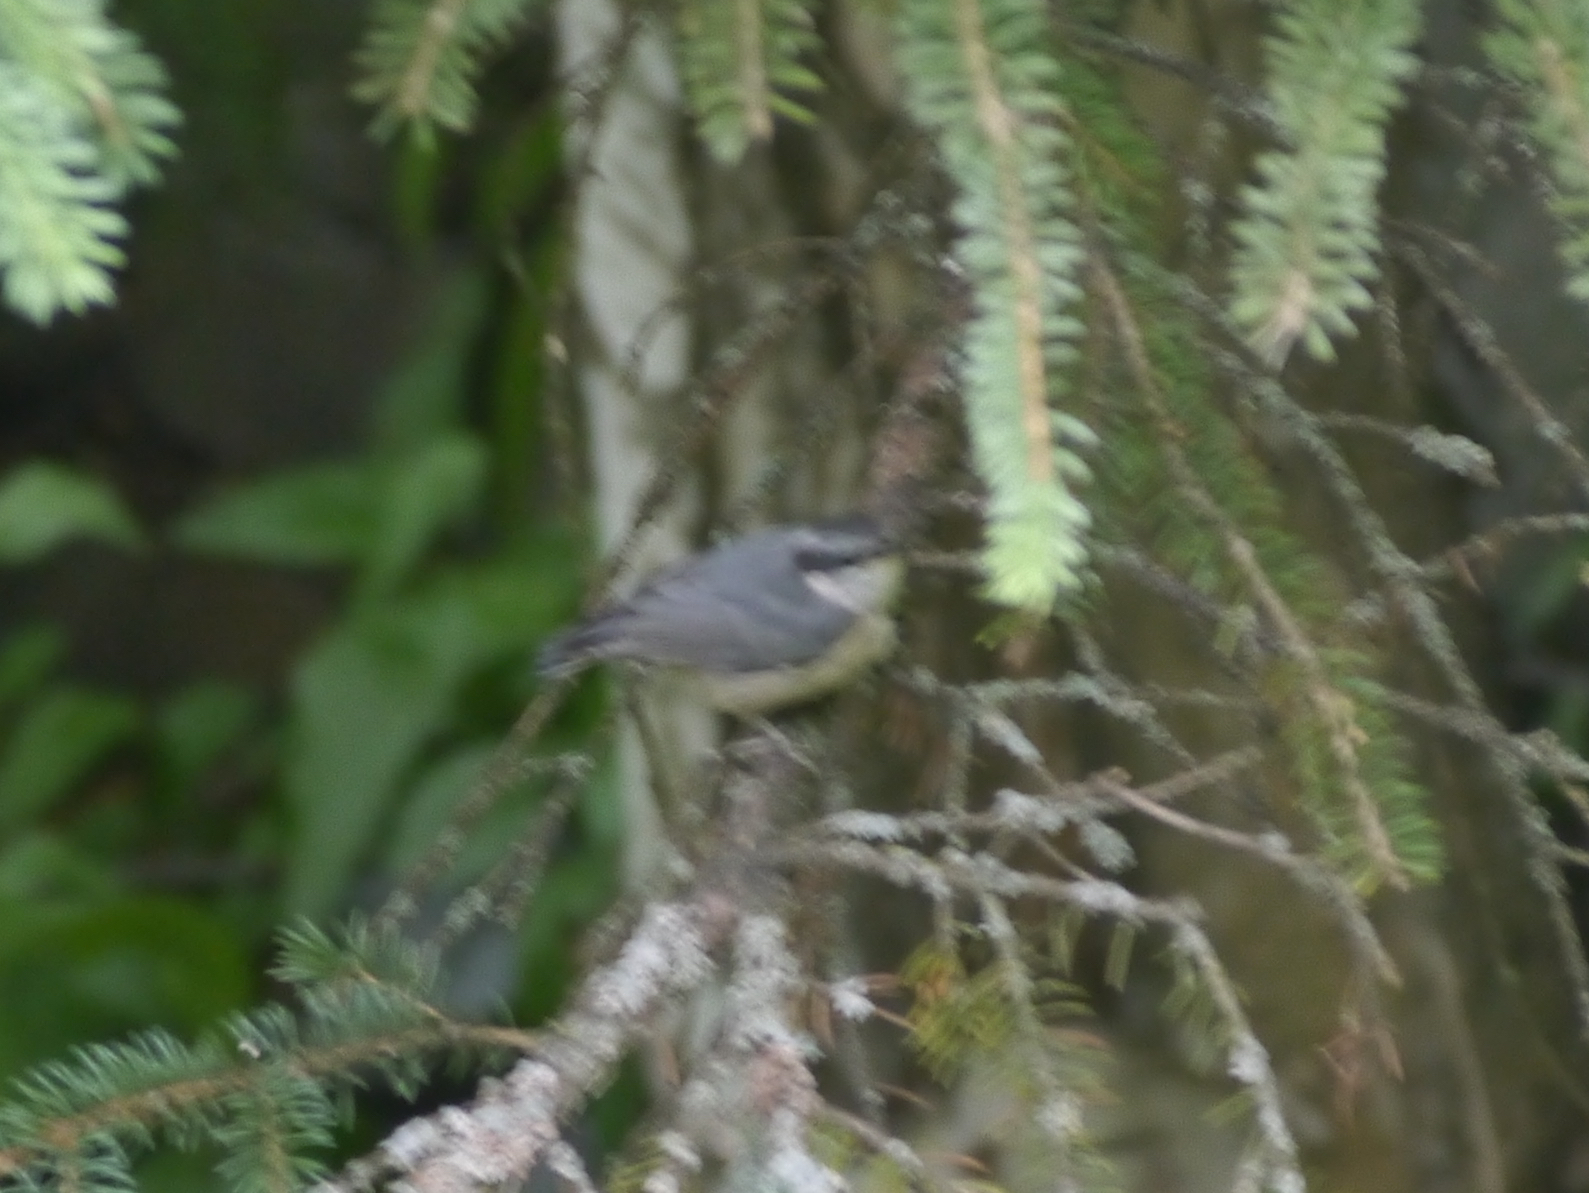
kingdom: Animalia
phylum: Chordata
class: Aves
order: Passeriformes
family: Sittidae
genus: Sitta
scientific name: Sitta canadensis
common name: Red-breasted nuthatch
